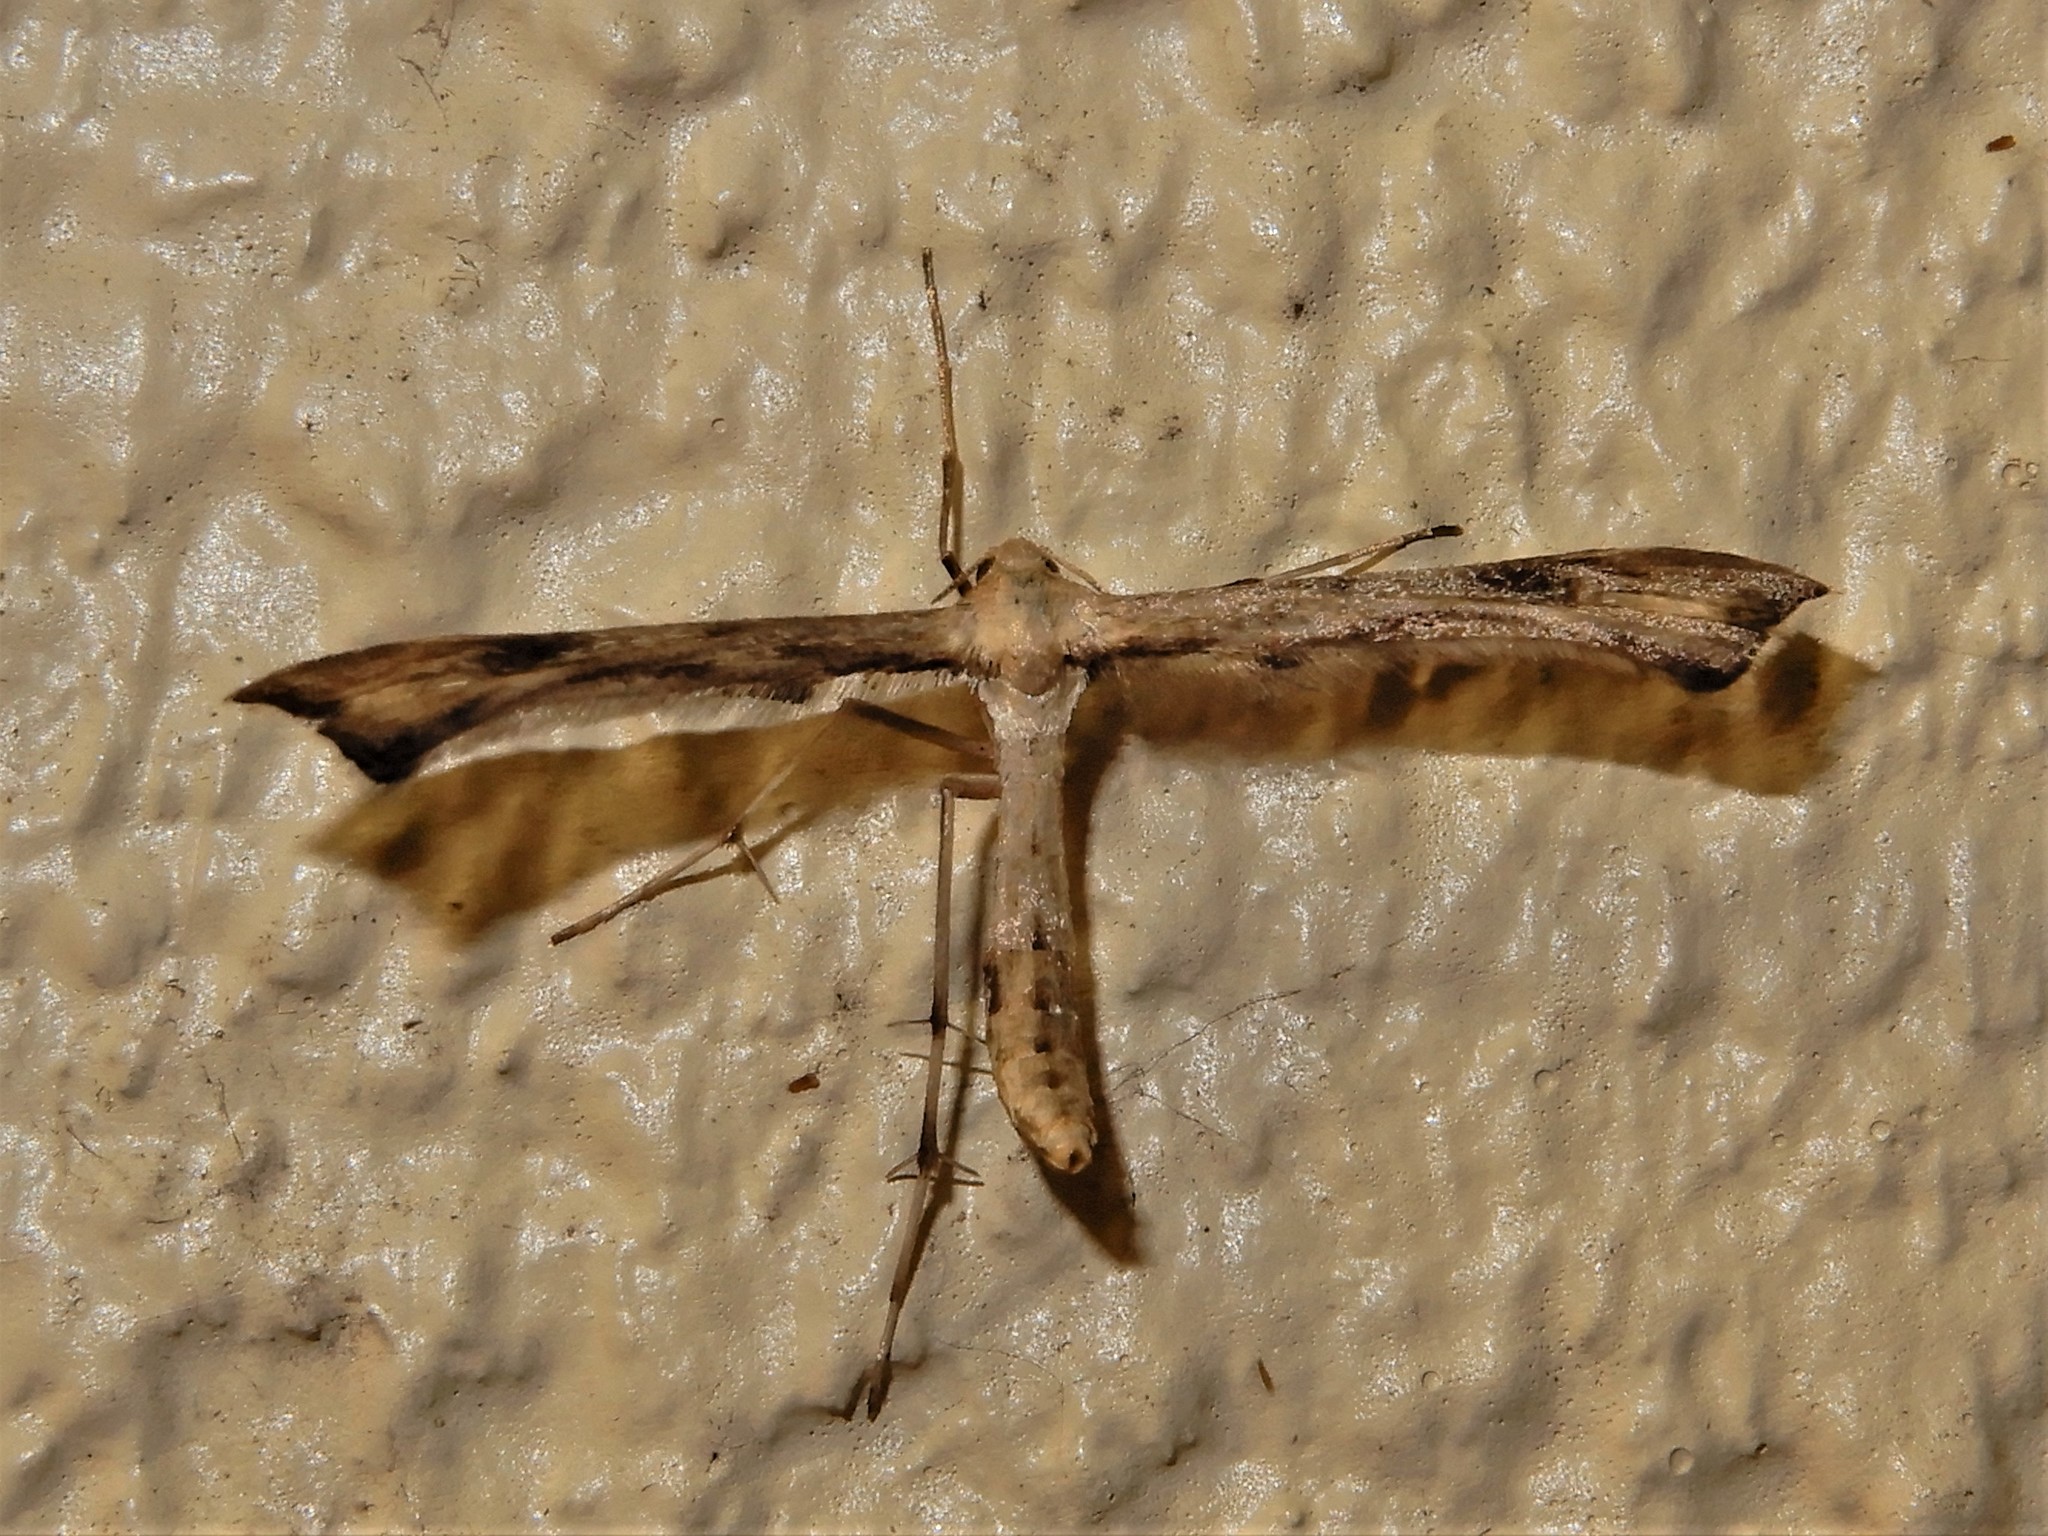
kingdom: Animalia
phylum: Arthropoda
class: Insecta
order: Lepidoptera
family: Pterophoridae
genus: Platyptilia
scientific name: Platyptilia isodactylus
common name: Hoary plume
